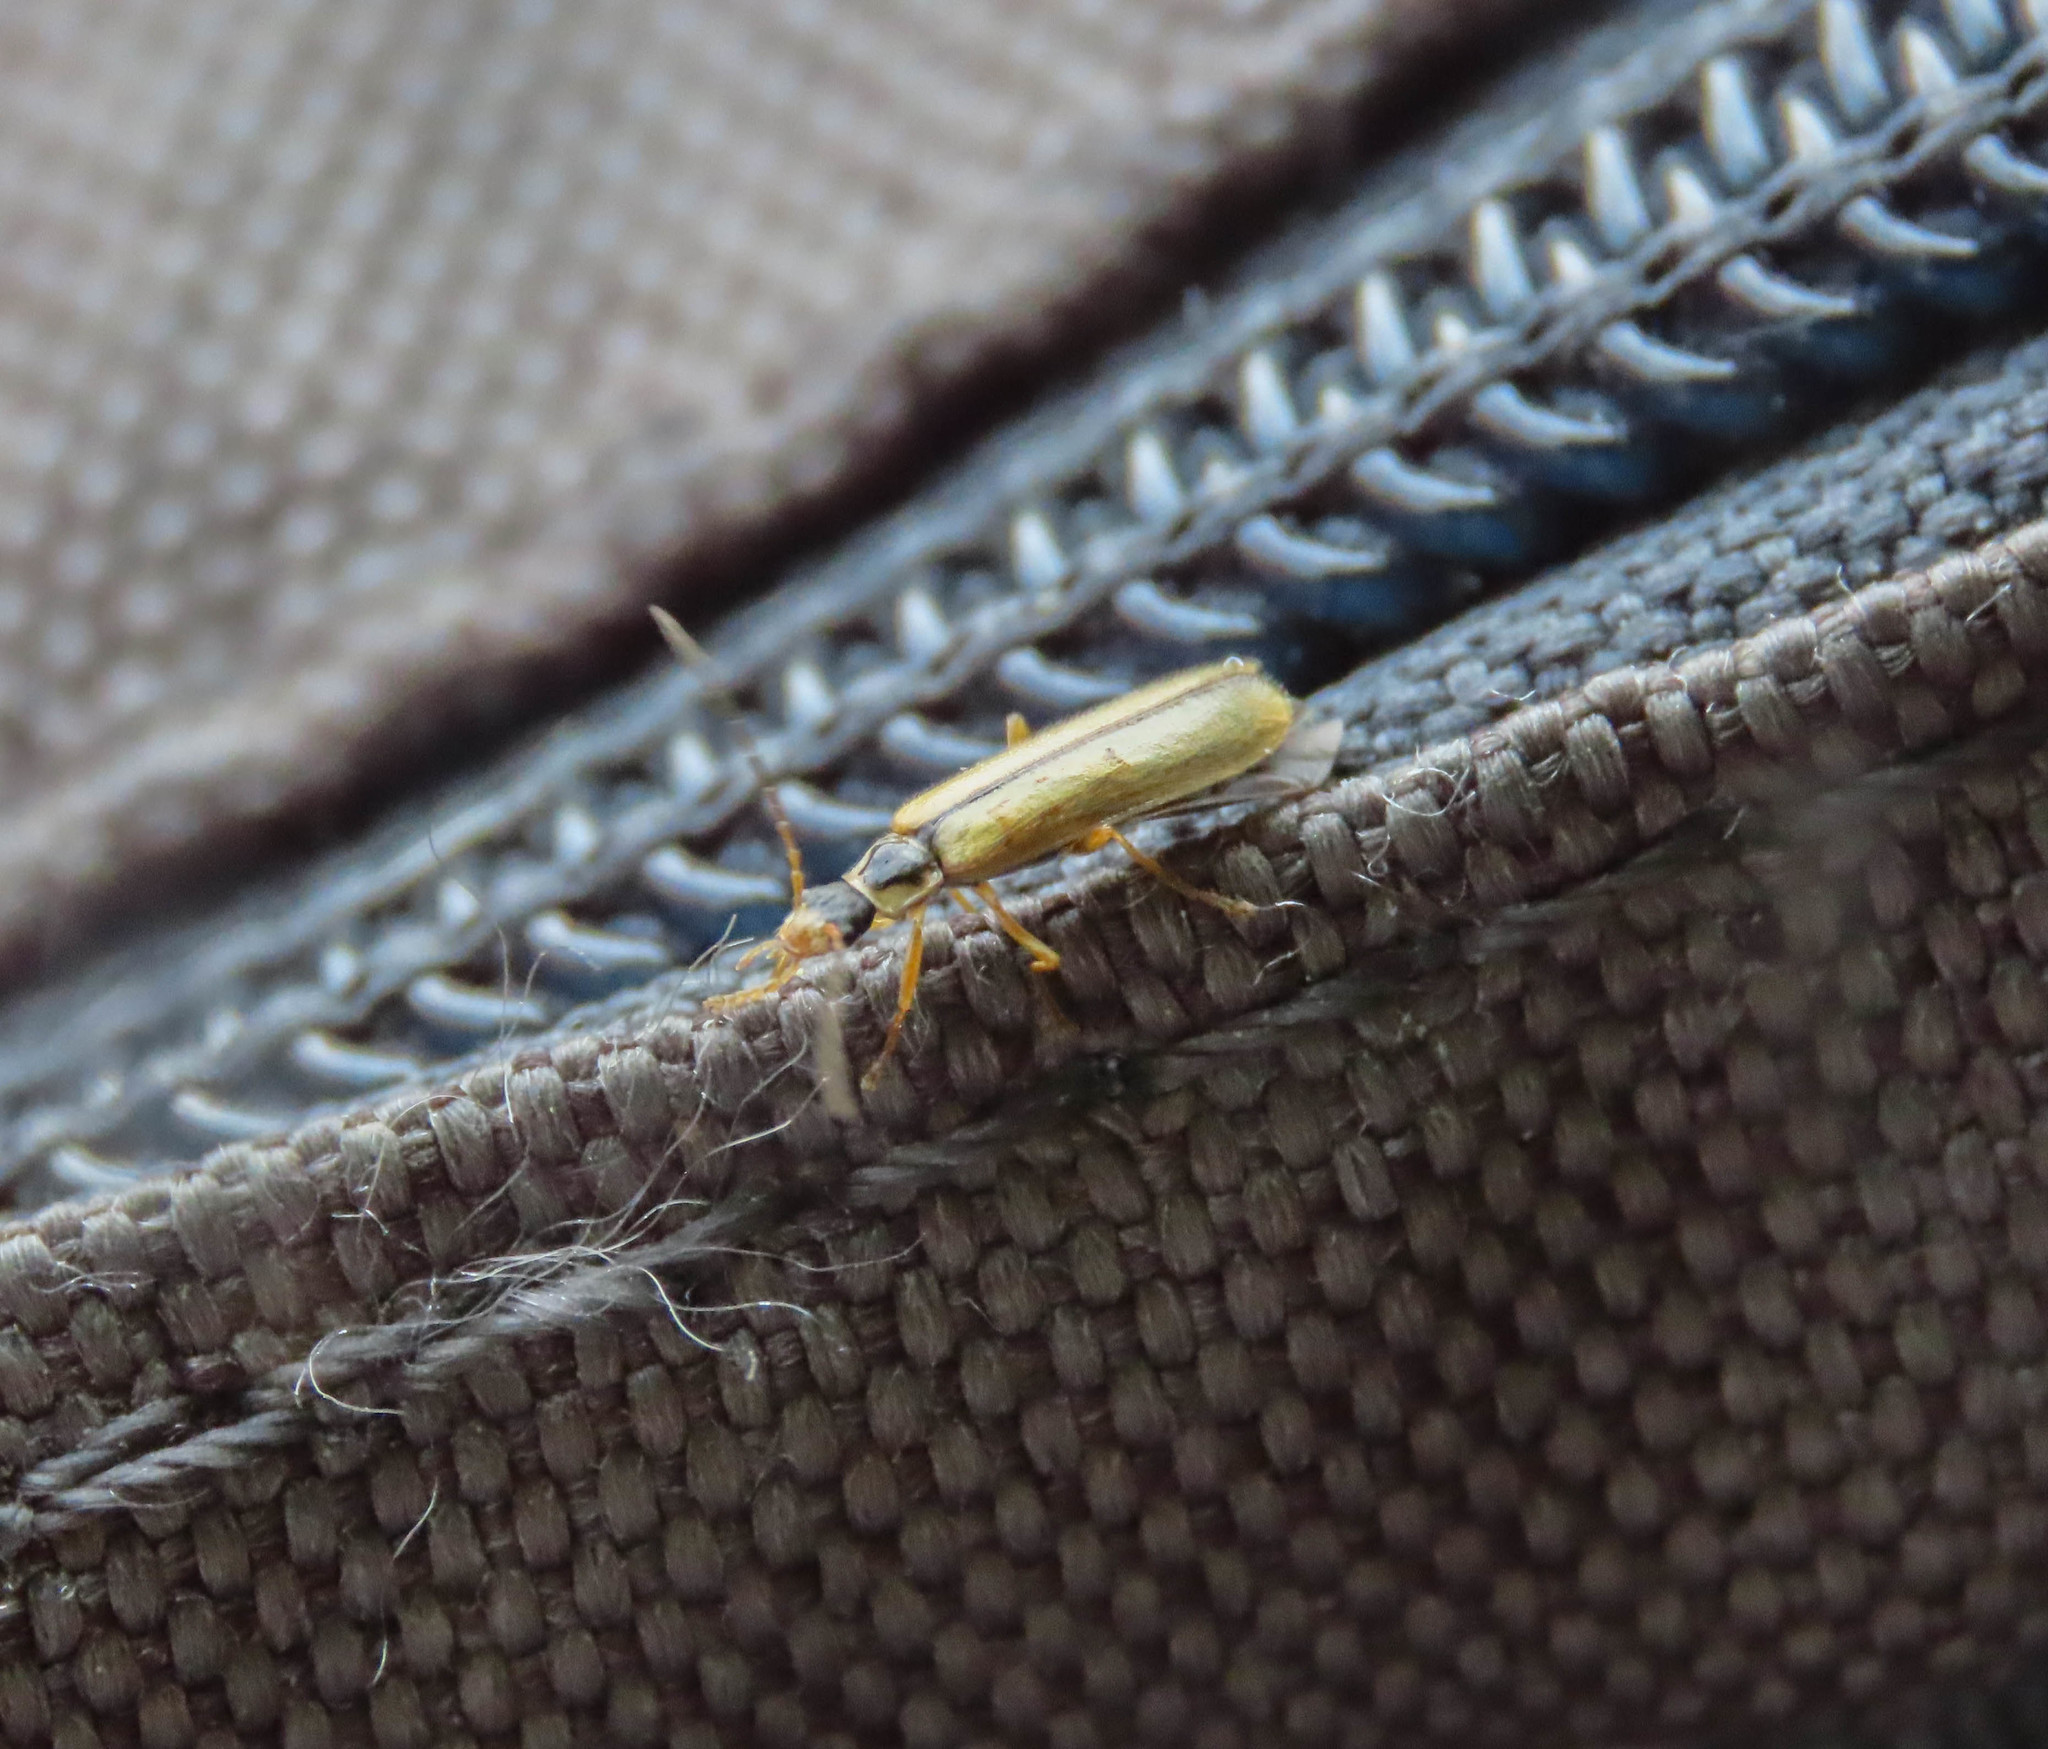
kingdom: Animalia
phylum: Arthropoda
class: Insecta
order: Coleoptera
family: Cantharidae
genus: Rhagonycha
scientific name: Rhagonycha nigrosuta
